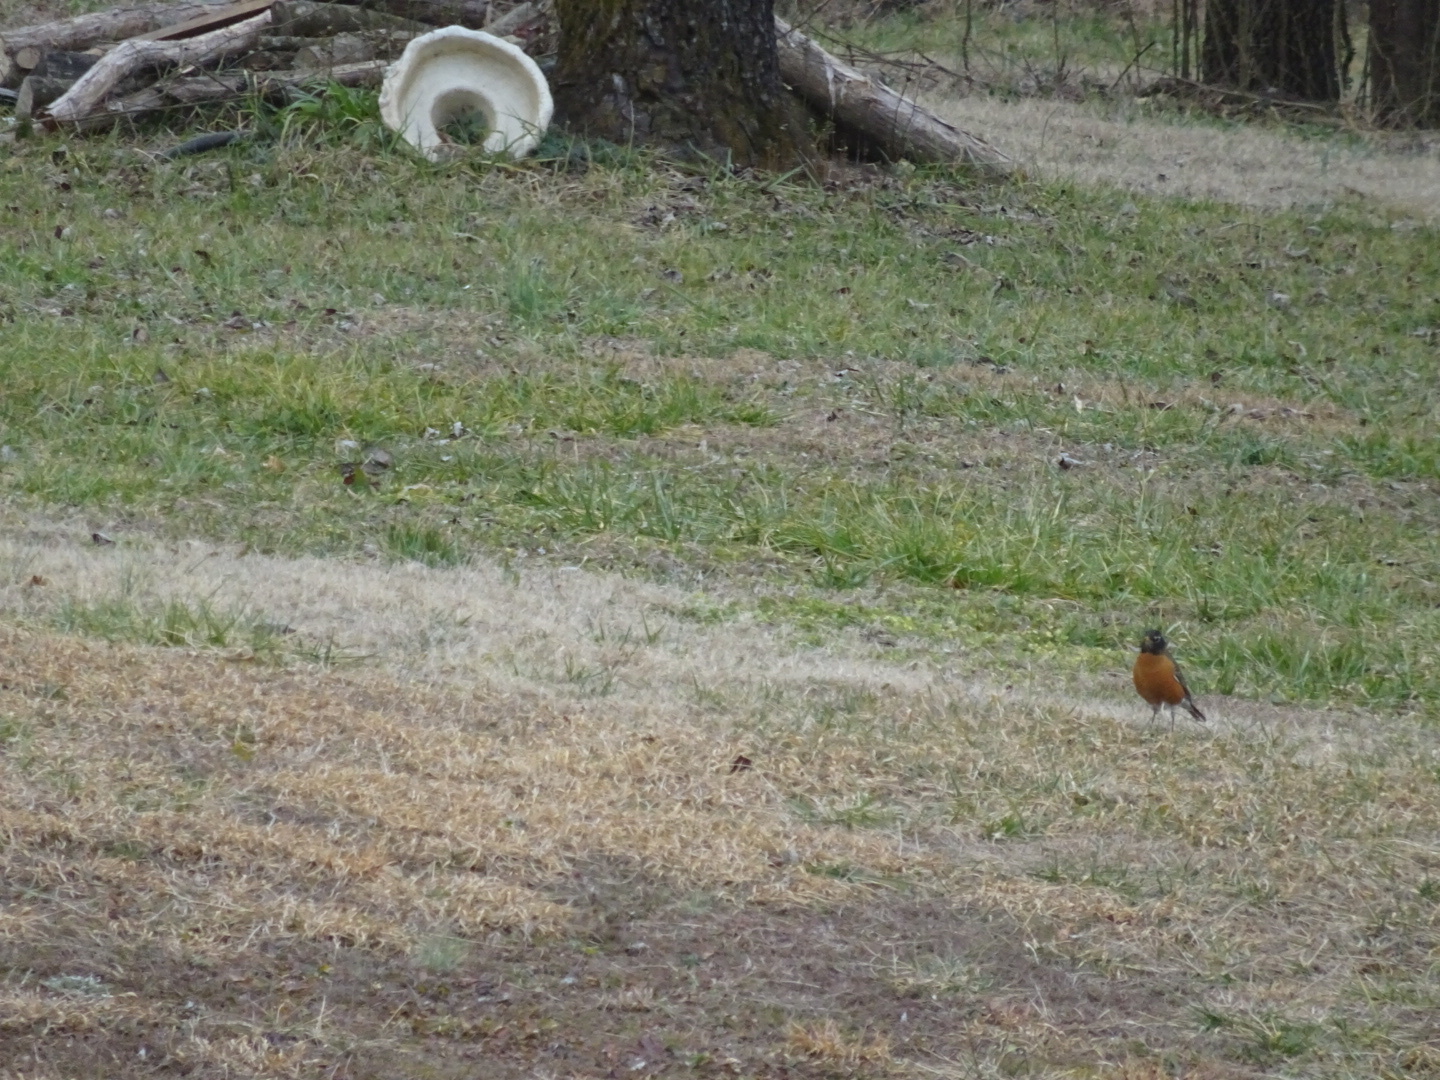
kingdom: Animalia
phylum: Chordata
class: Aves
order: Passeriformes
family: Turdidae
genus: Turdus
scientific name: Turdus migratorius
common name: American robin
